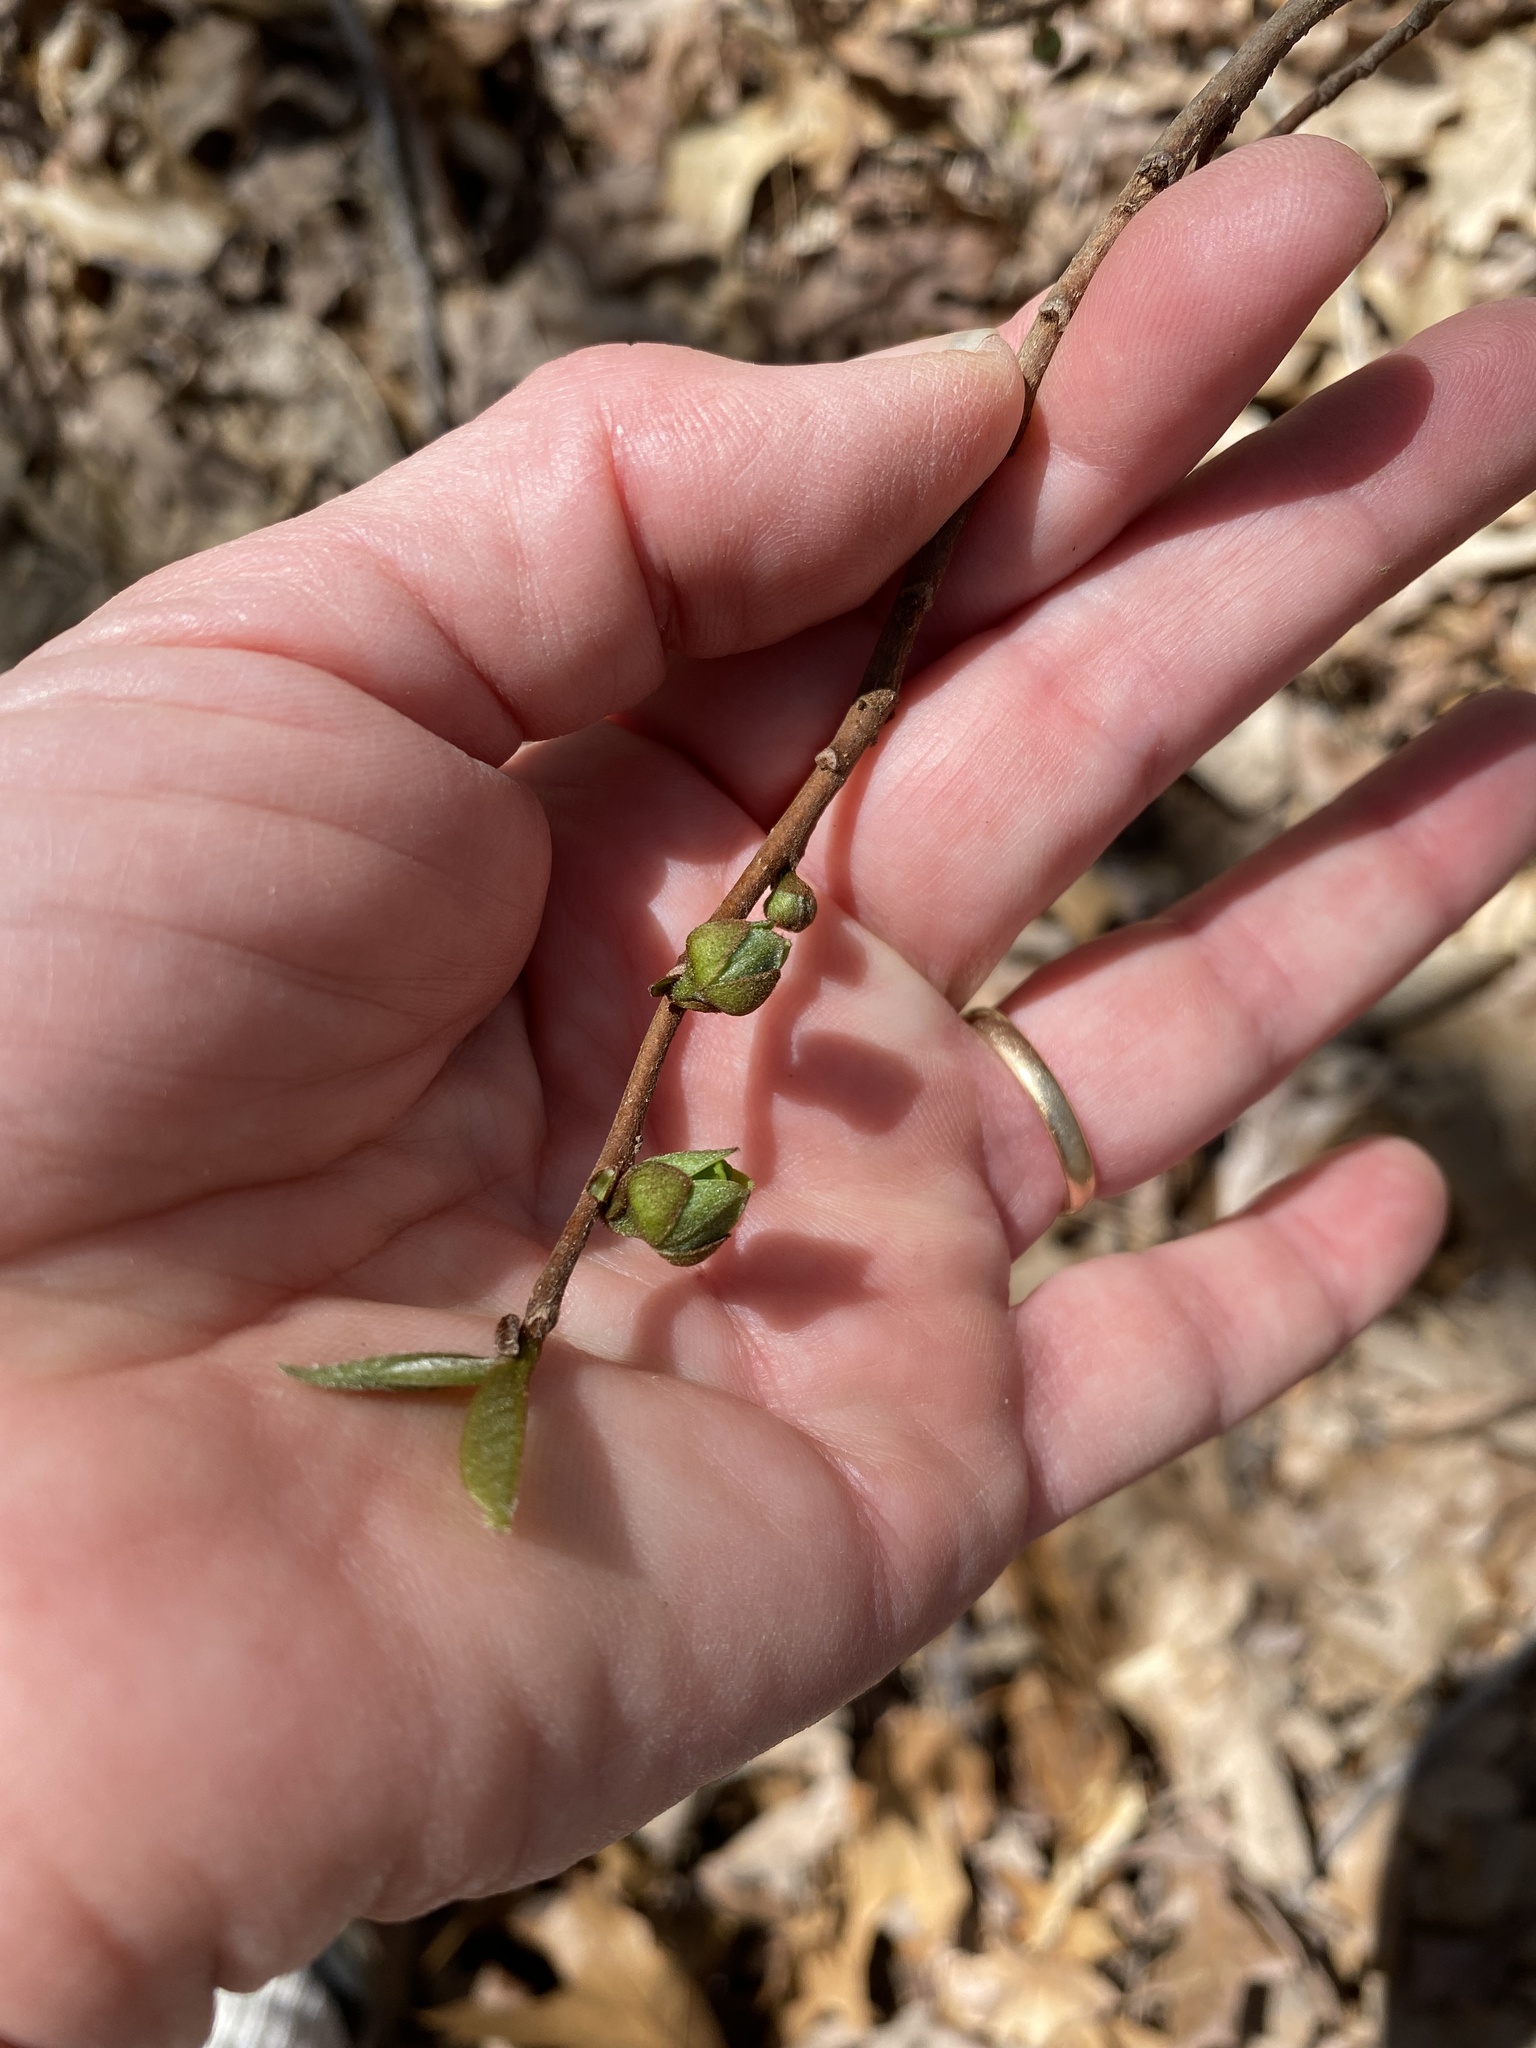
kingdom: Plantae
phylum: Tracheophyta
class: Magnoliopsida
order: Magnoliales
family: Annonaceae
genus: Asimina
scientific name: Asimina parviflora
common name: Dwarf pawpaw
